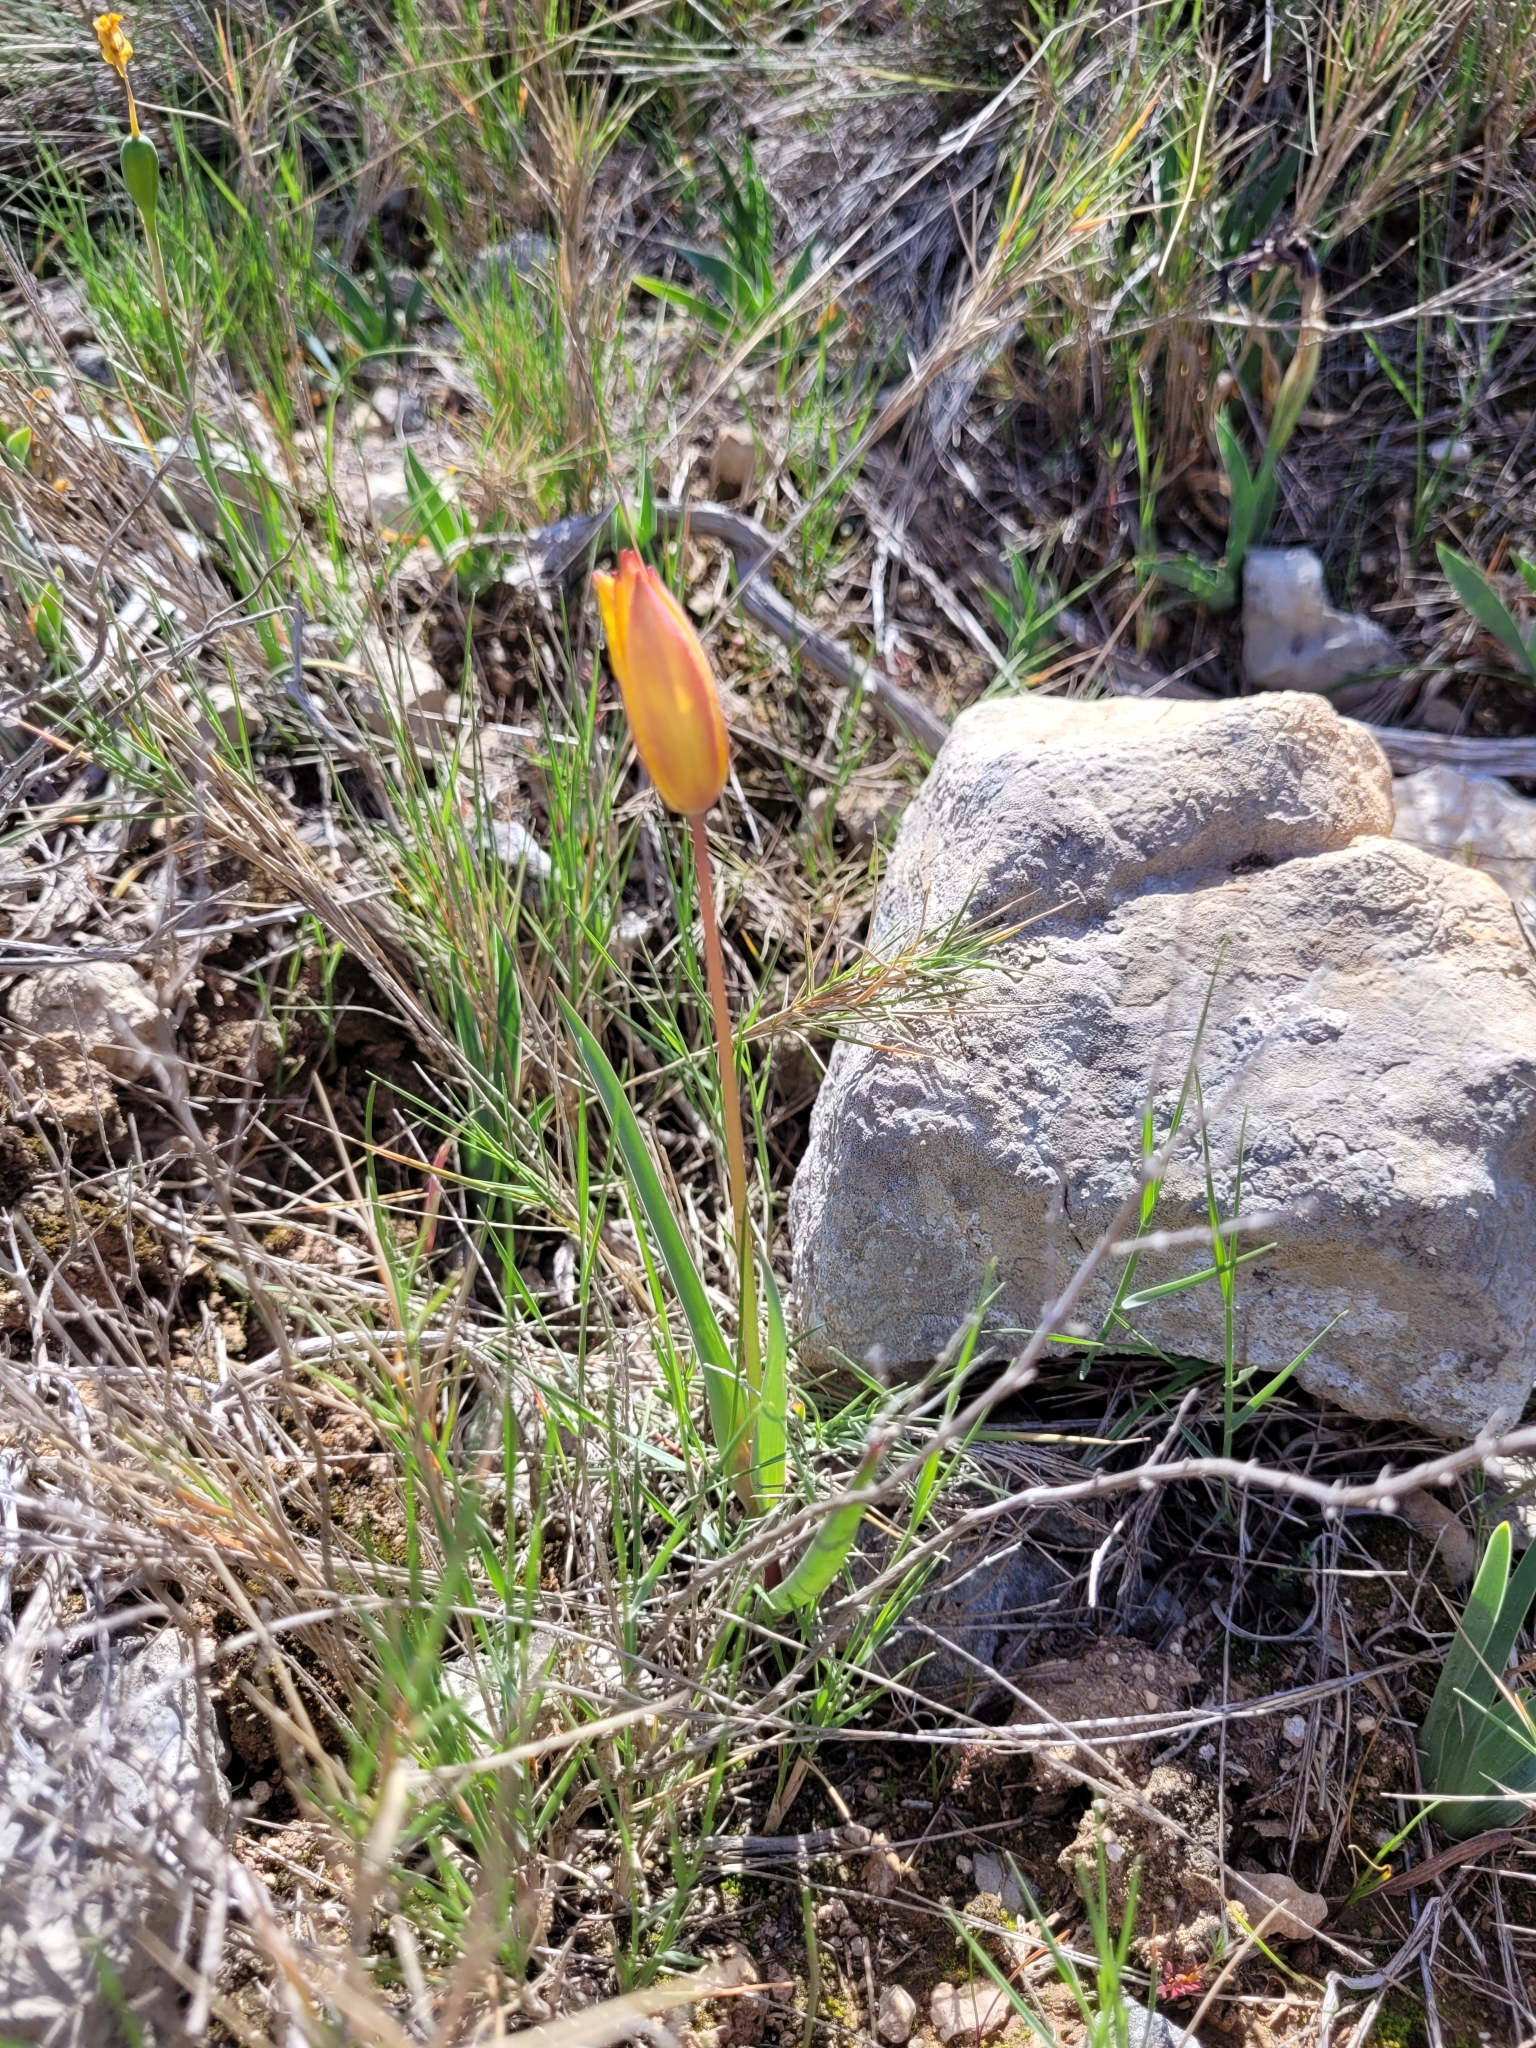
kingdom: Plantae
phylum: Tracheophyta
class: Liliopsida
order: Liliales
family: Liliaceae
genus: Tulipa
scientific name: Tulipa sylvestris
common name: Wild tulip
